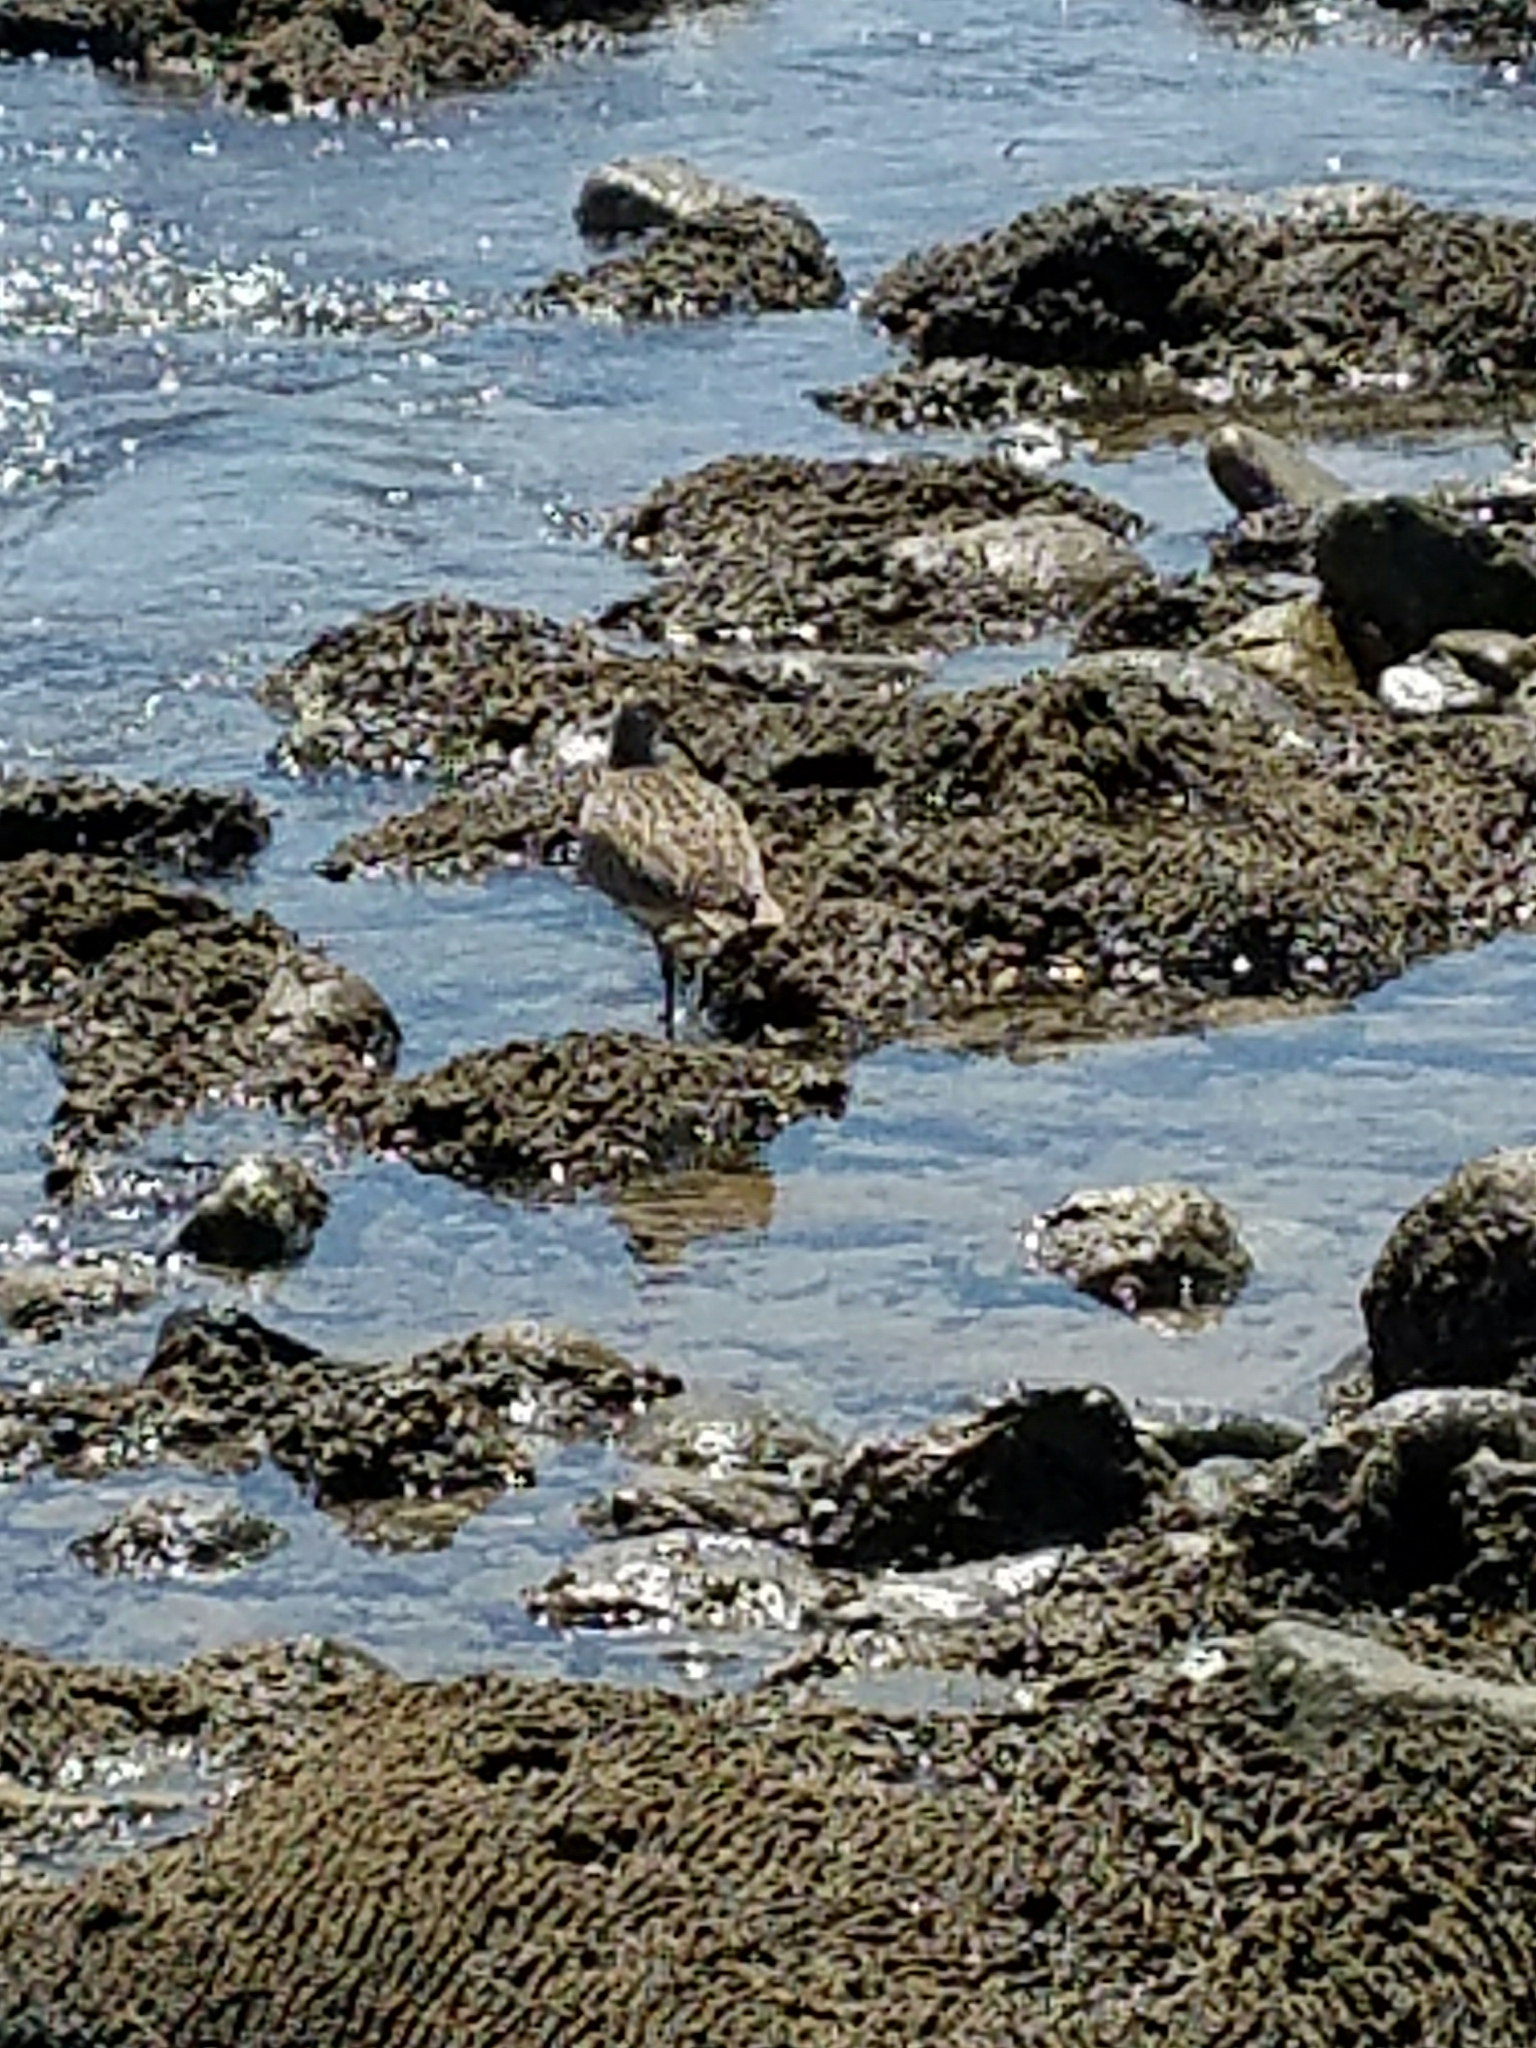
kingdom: Animalia
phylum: Chordata
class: Aves
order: Charadriiformes
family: Scolopacidae
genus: Numenius
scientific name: Numenius phaeopus
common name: Whimbrel
